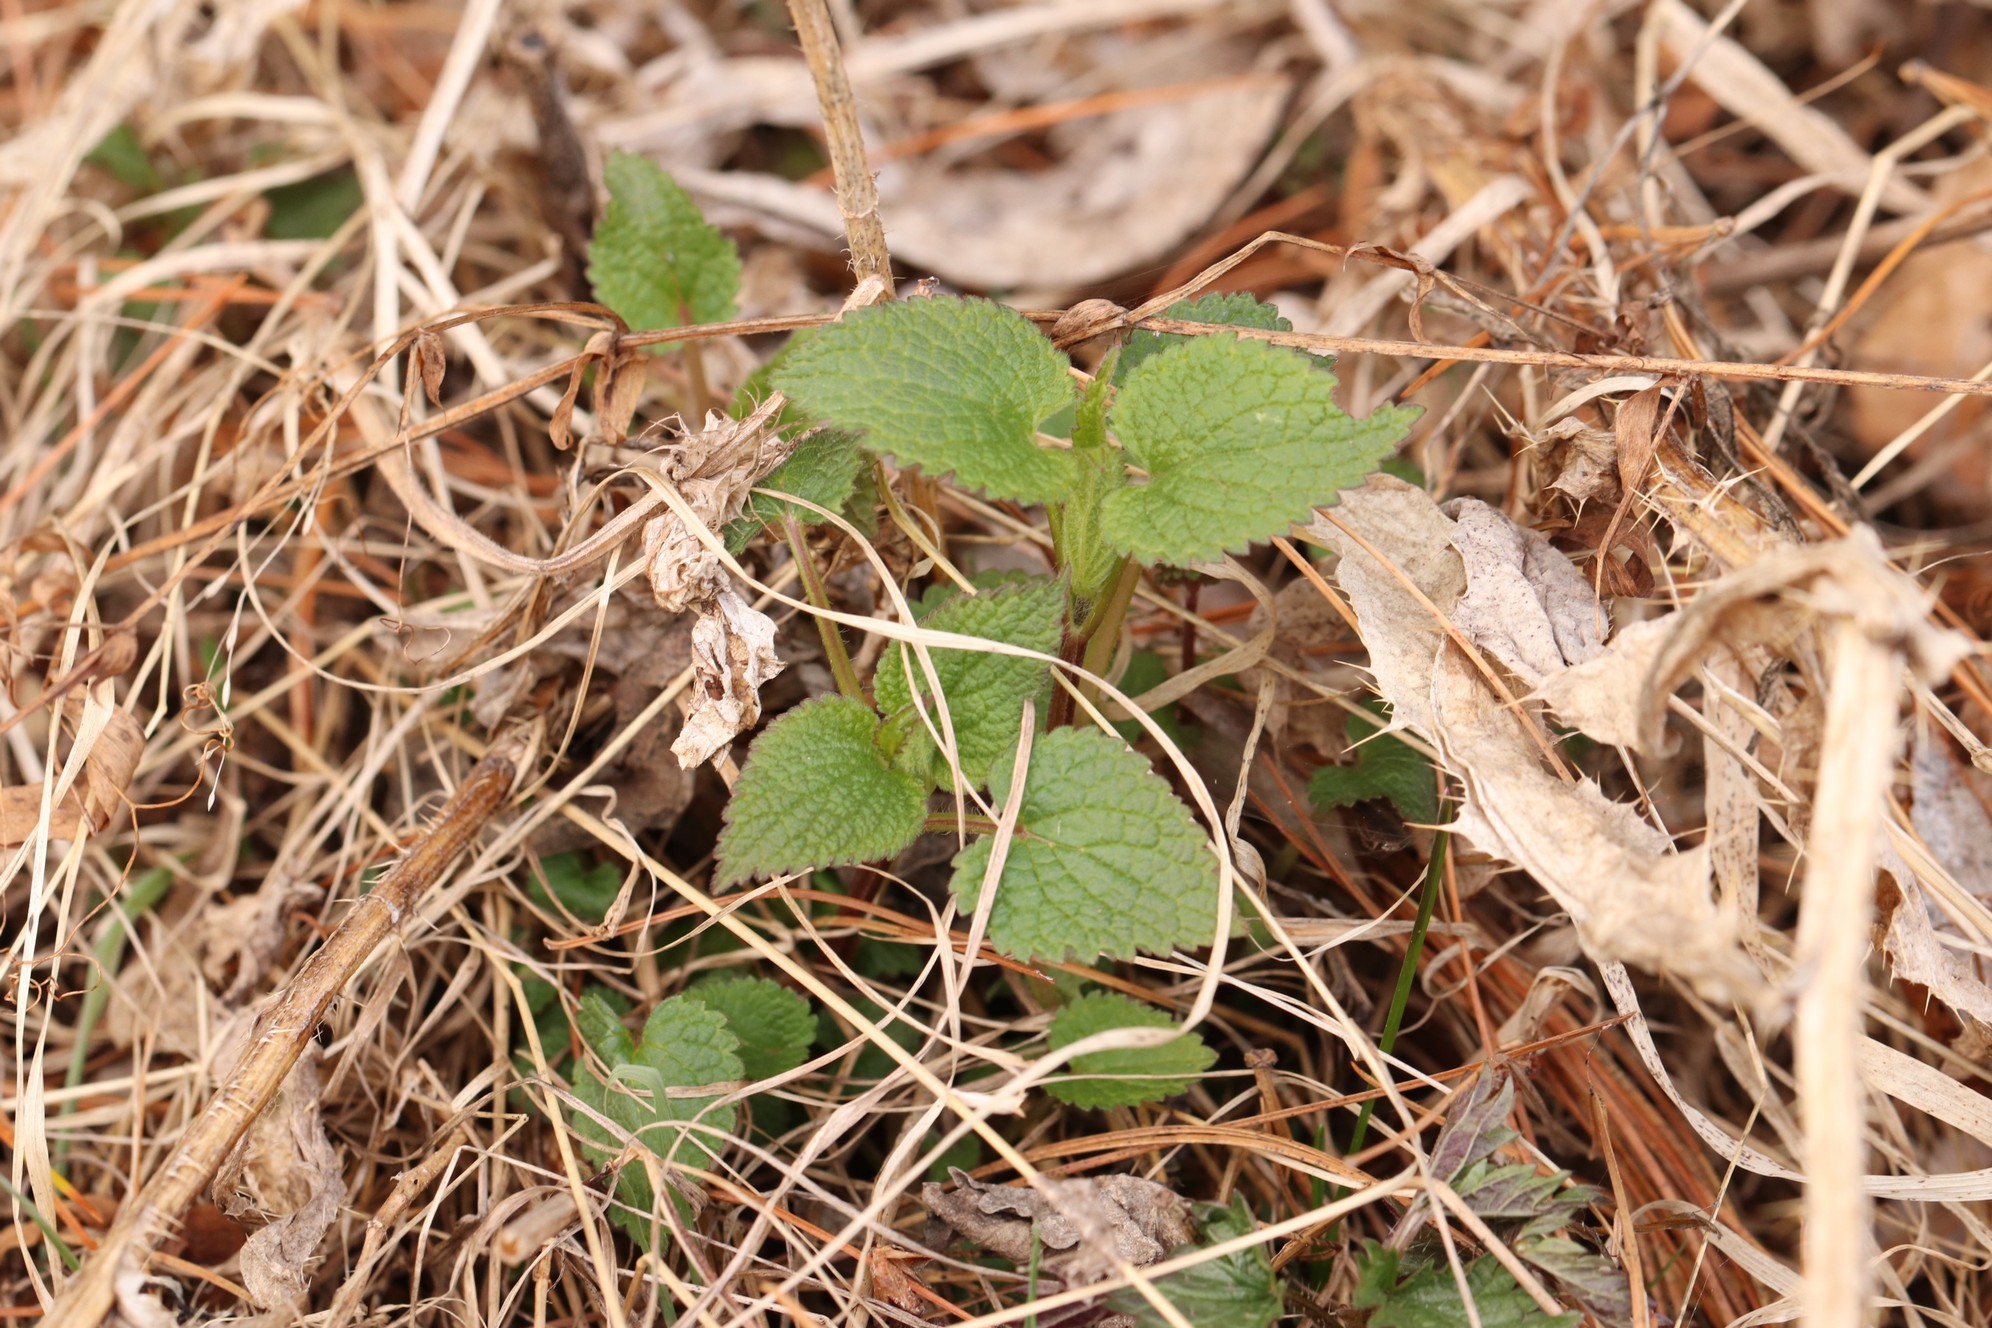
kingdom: Plantae
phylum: Tracheophyta
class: Magnoliopsida
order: Lamiales
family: Lamiaceae
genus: Lamium
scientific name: Lamium album
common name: White dead-nettle
